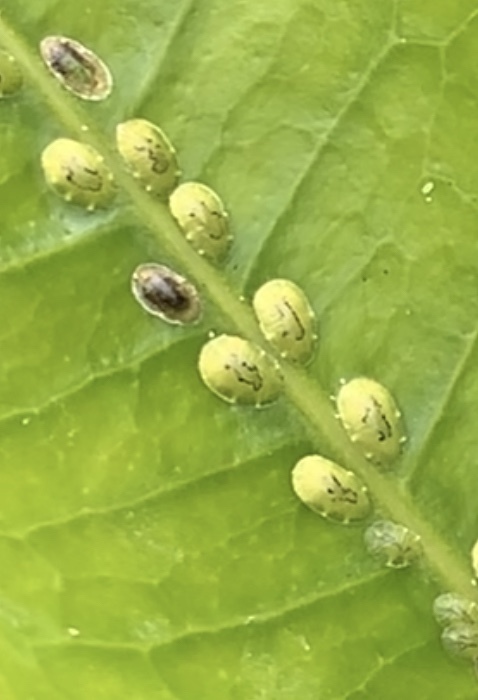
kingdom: Animalia
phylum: Arthropoda
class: Insecta
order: Hemiptera
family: Coccidae
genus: Coccus
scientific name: Coccus viridis
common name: Green scale
